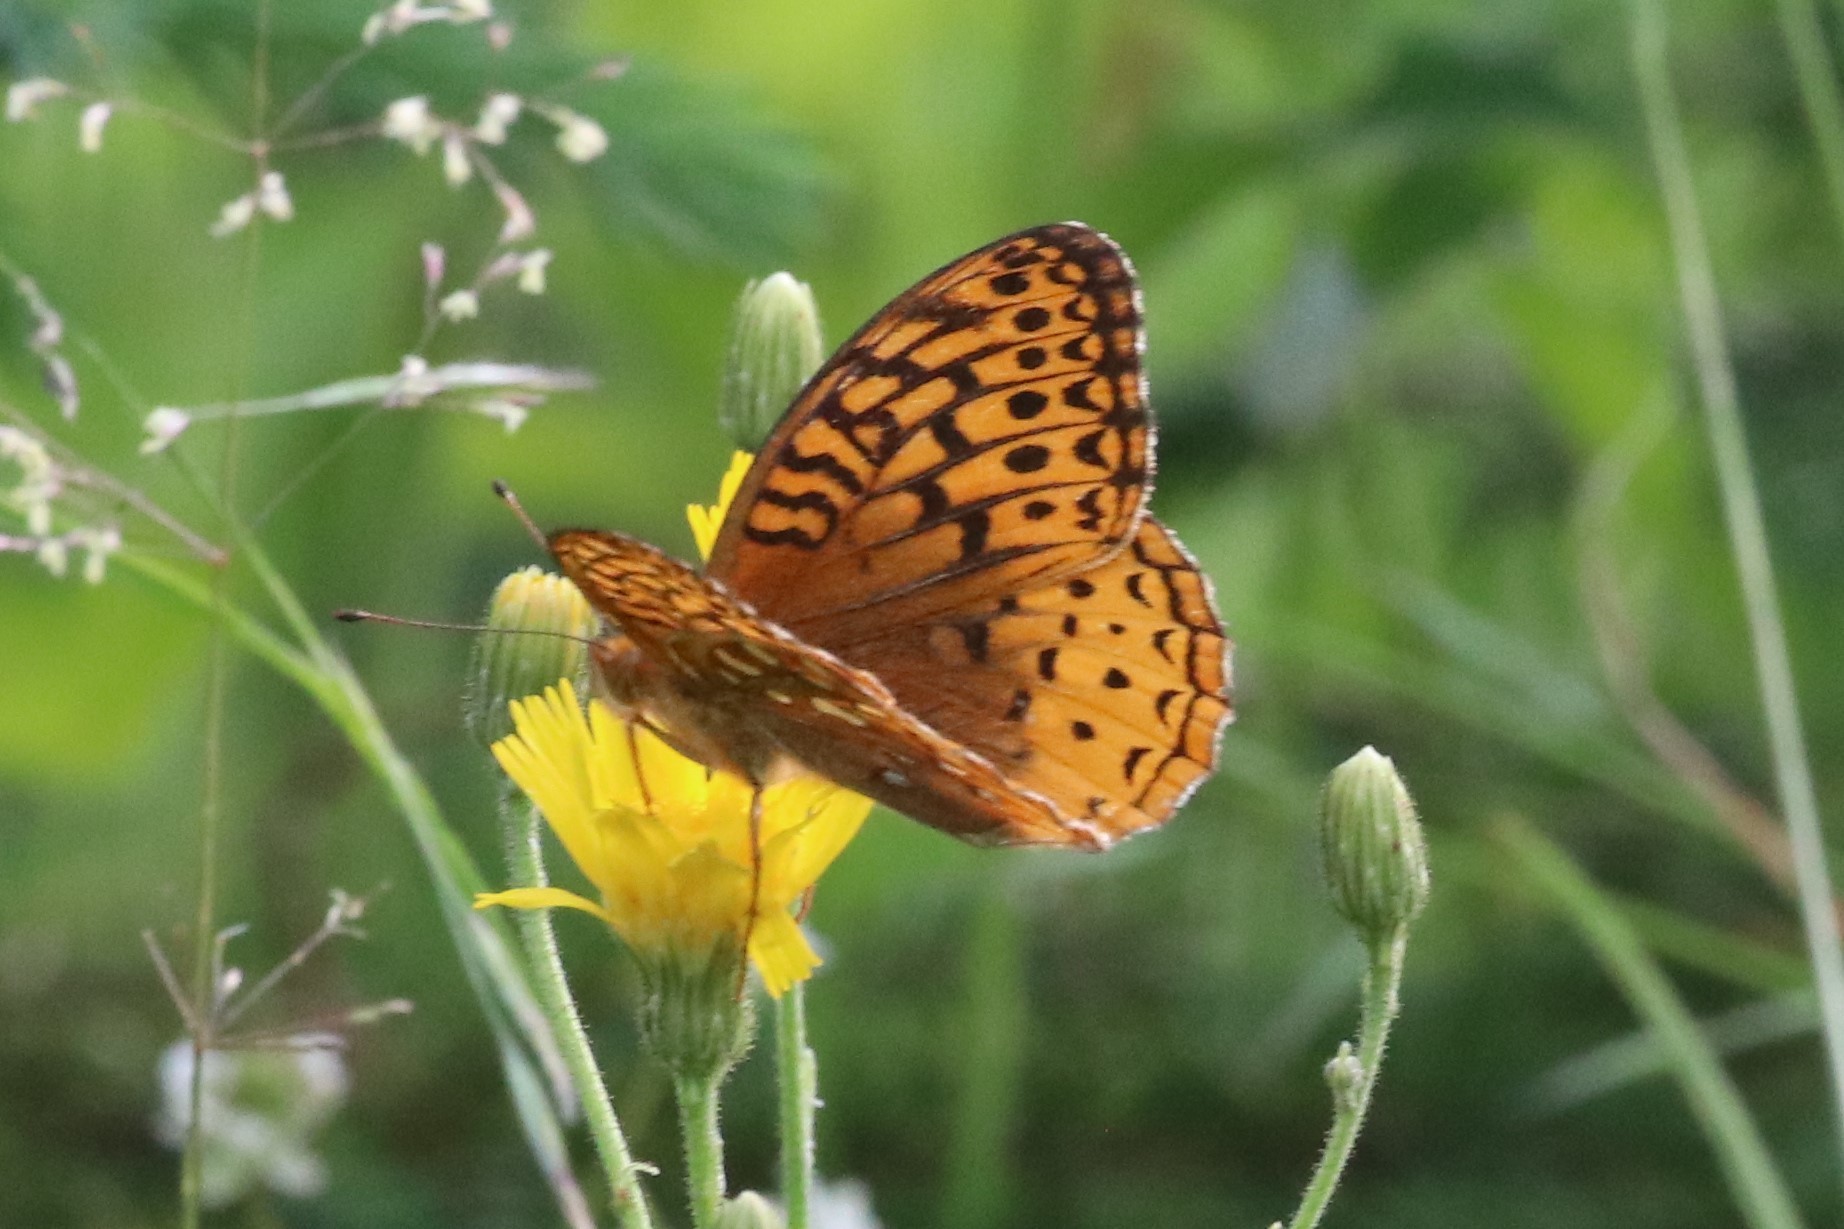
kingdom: Animalia
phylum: Arthropoda
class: Insecta
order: Lepidoptera
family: Nymphalidae
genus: Speyeria
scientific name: Speyeria cybele
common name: Great spangled fritillary
